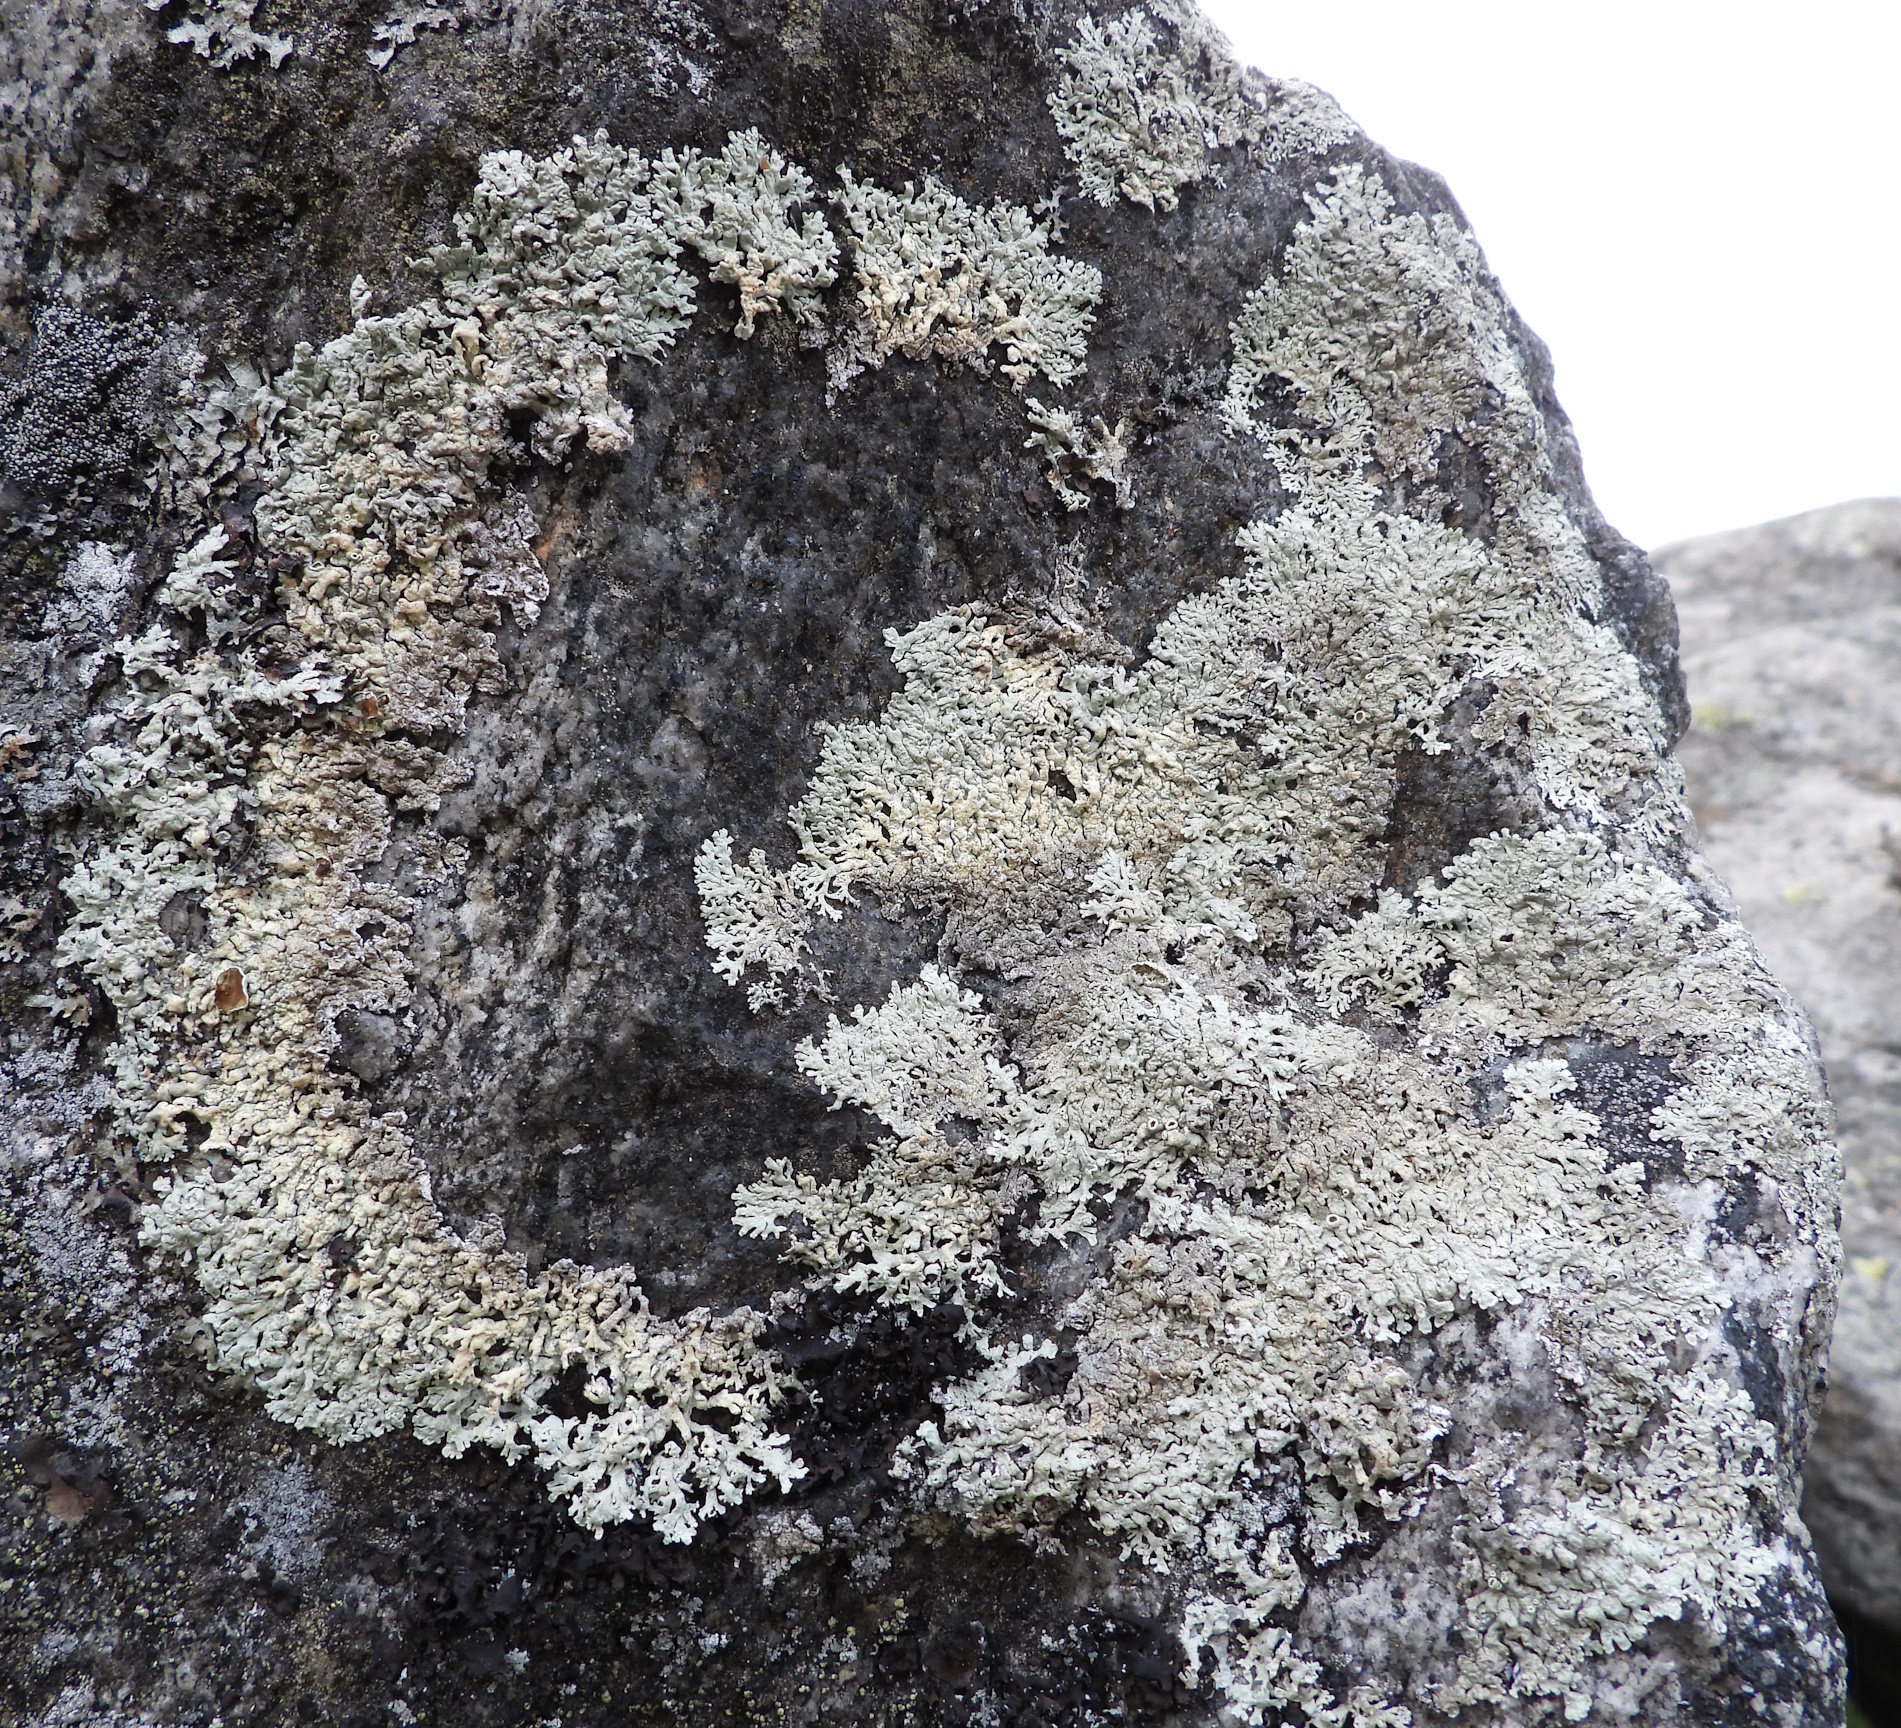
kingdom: Fungi
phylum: Ascomycota
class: Lecanoromycetes
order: Lecanorales
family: Parmeliaceae
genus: Arctoparmelia
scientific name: Arctoparmelia centrifuga
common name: Concentric ring lichen
